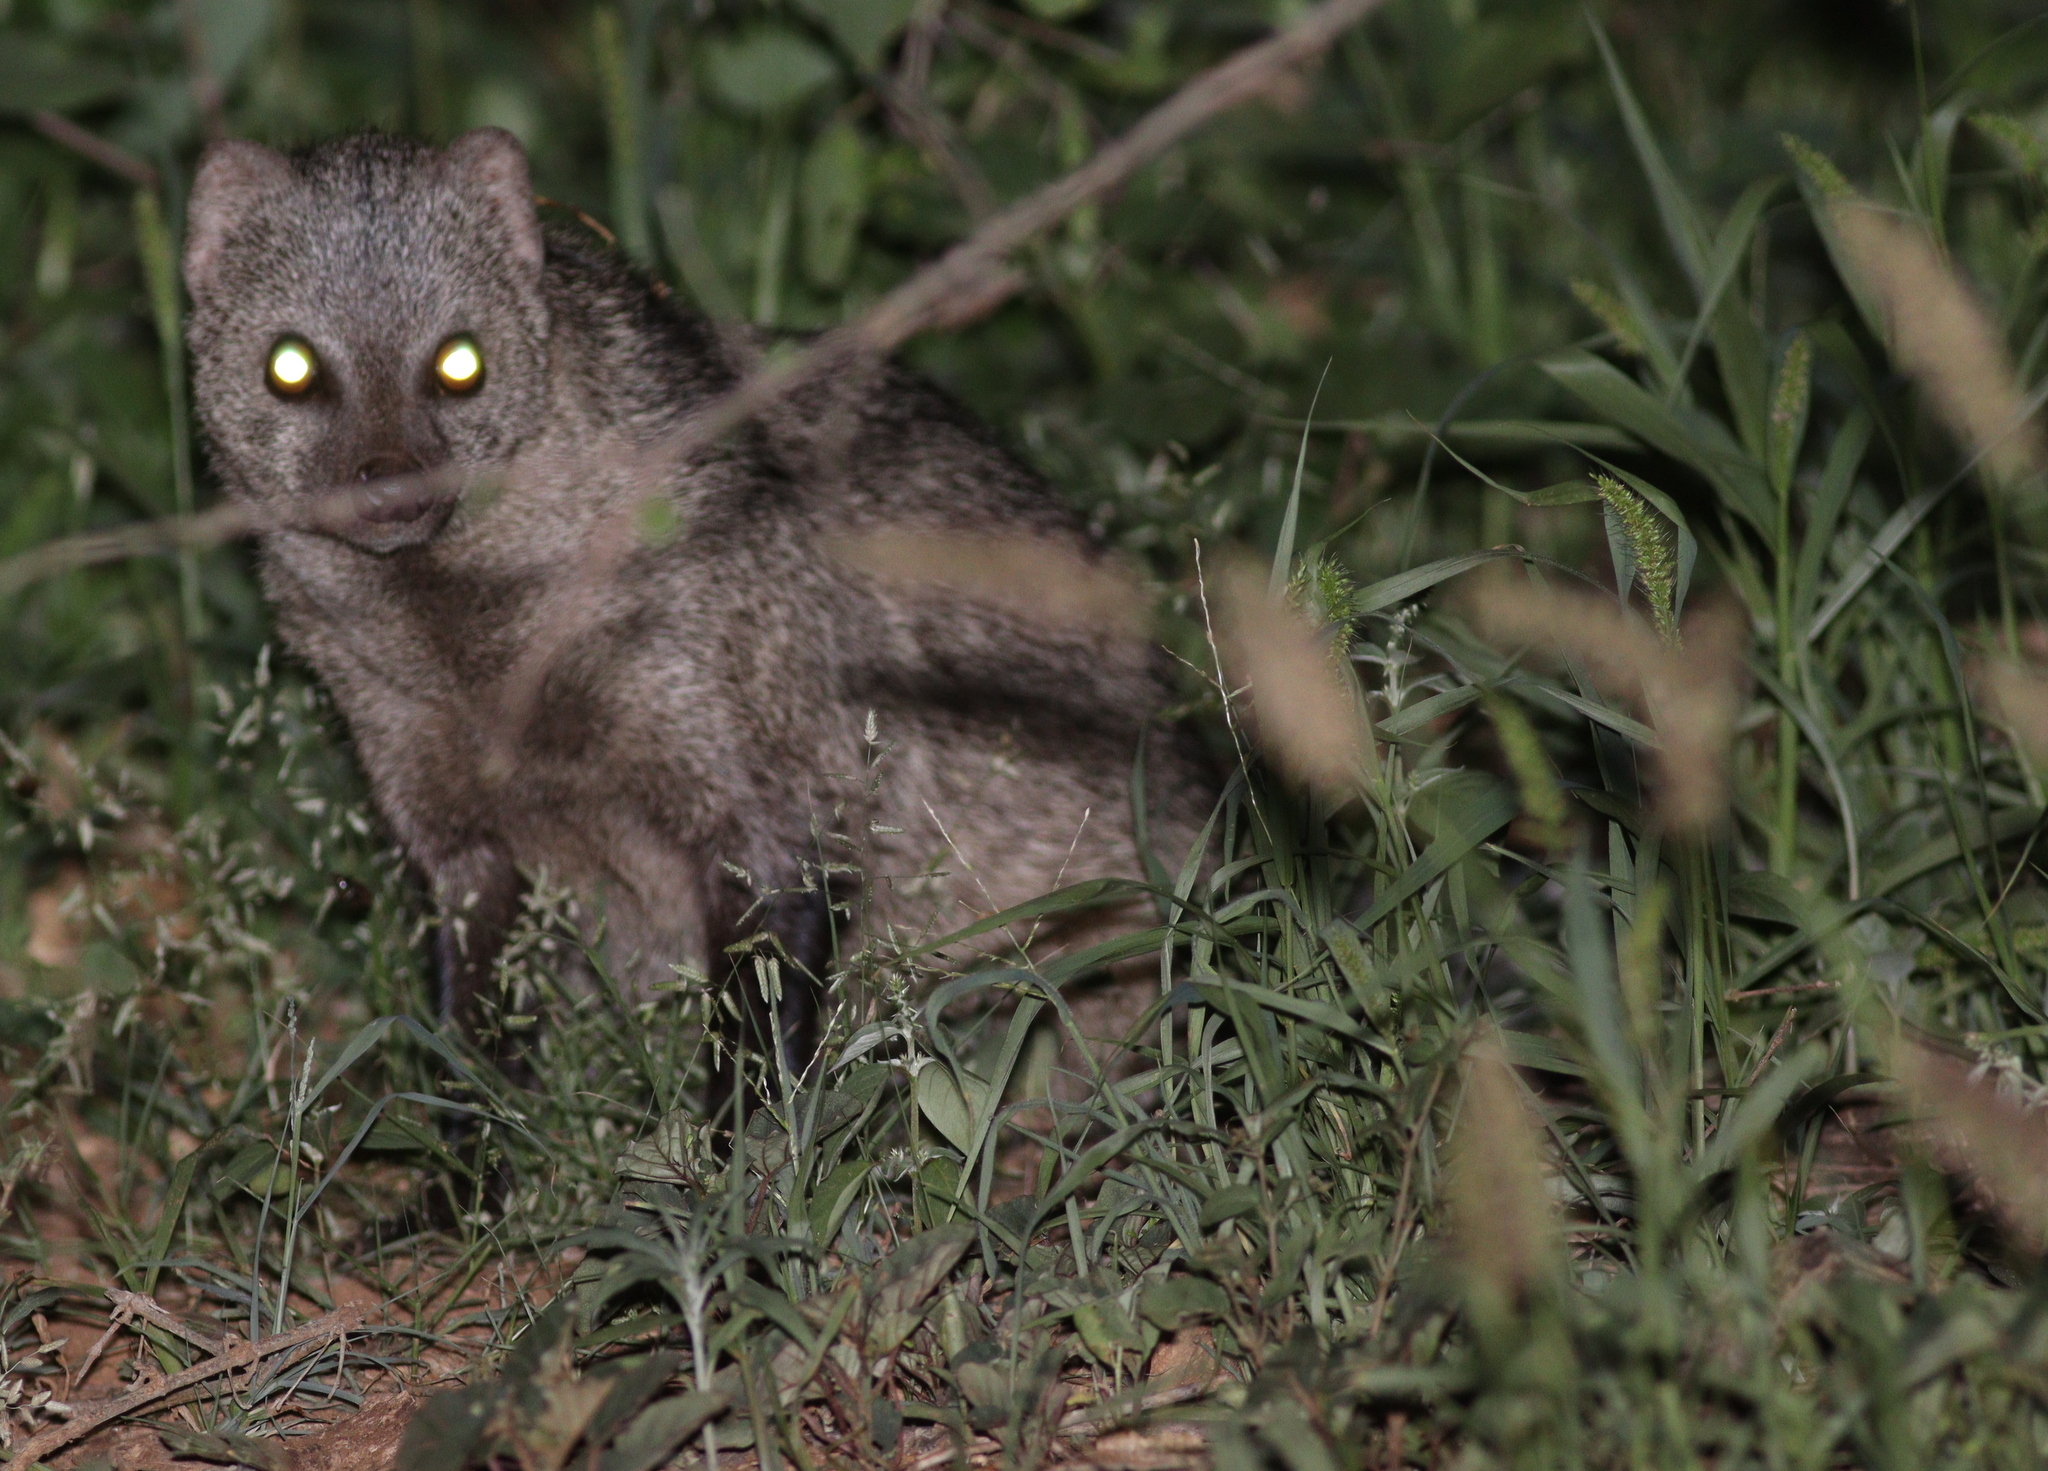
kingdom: Animalia
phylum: Chordata
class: Mammalia
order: Carnivora
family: Herpestidae
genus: Ichneumia
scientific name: Ichneumia albicauda
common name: White-tailed mongoose
